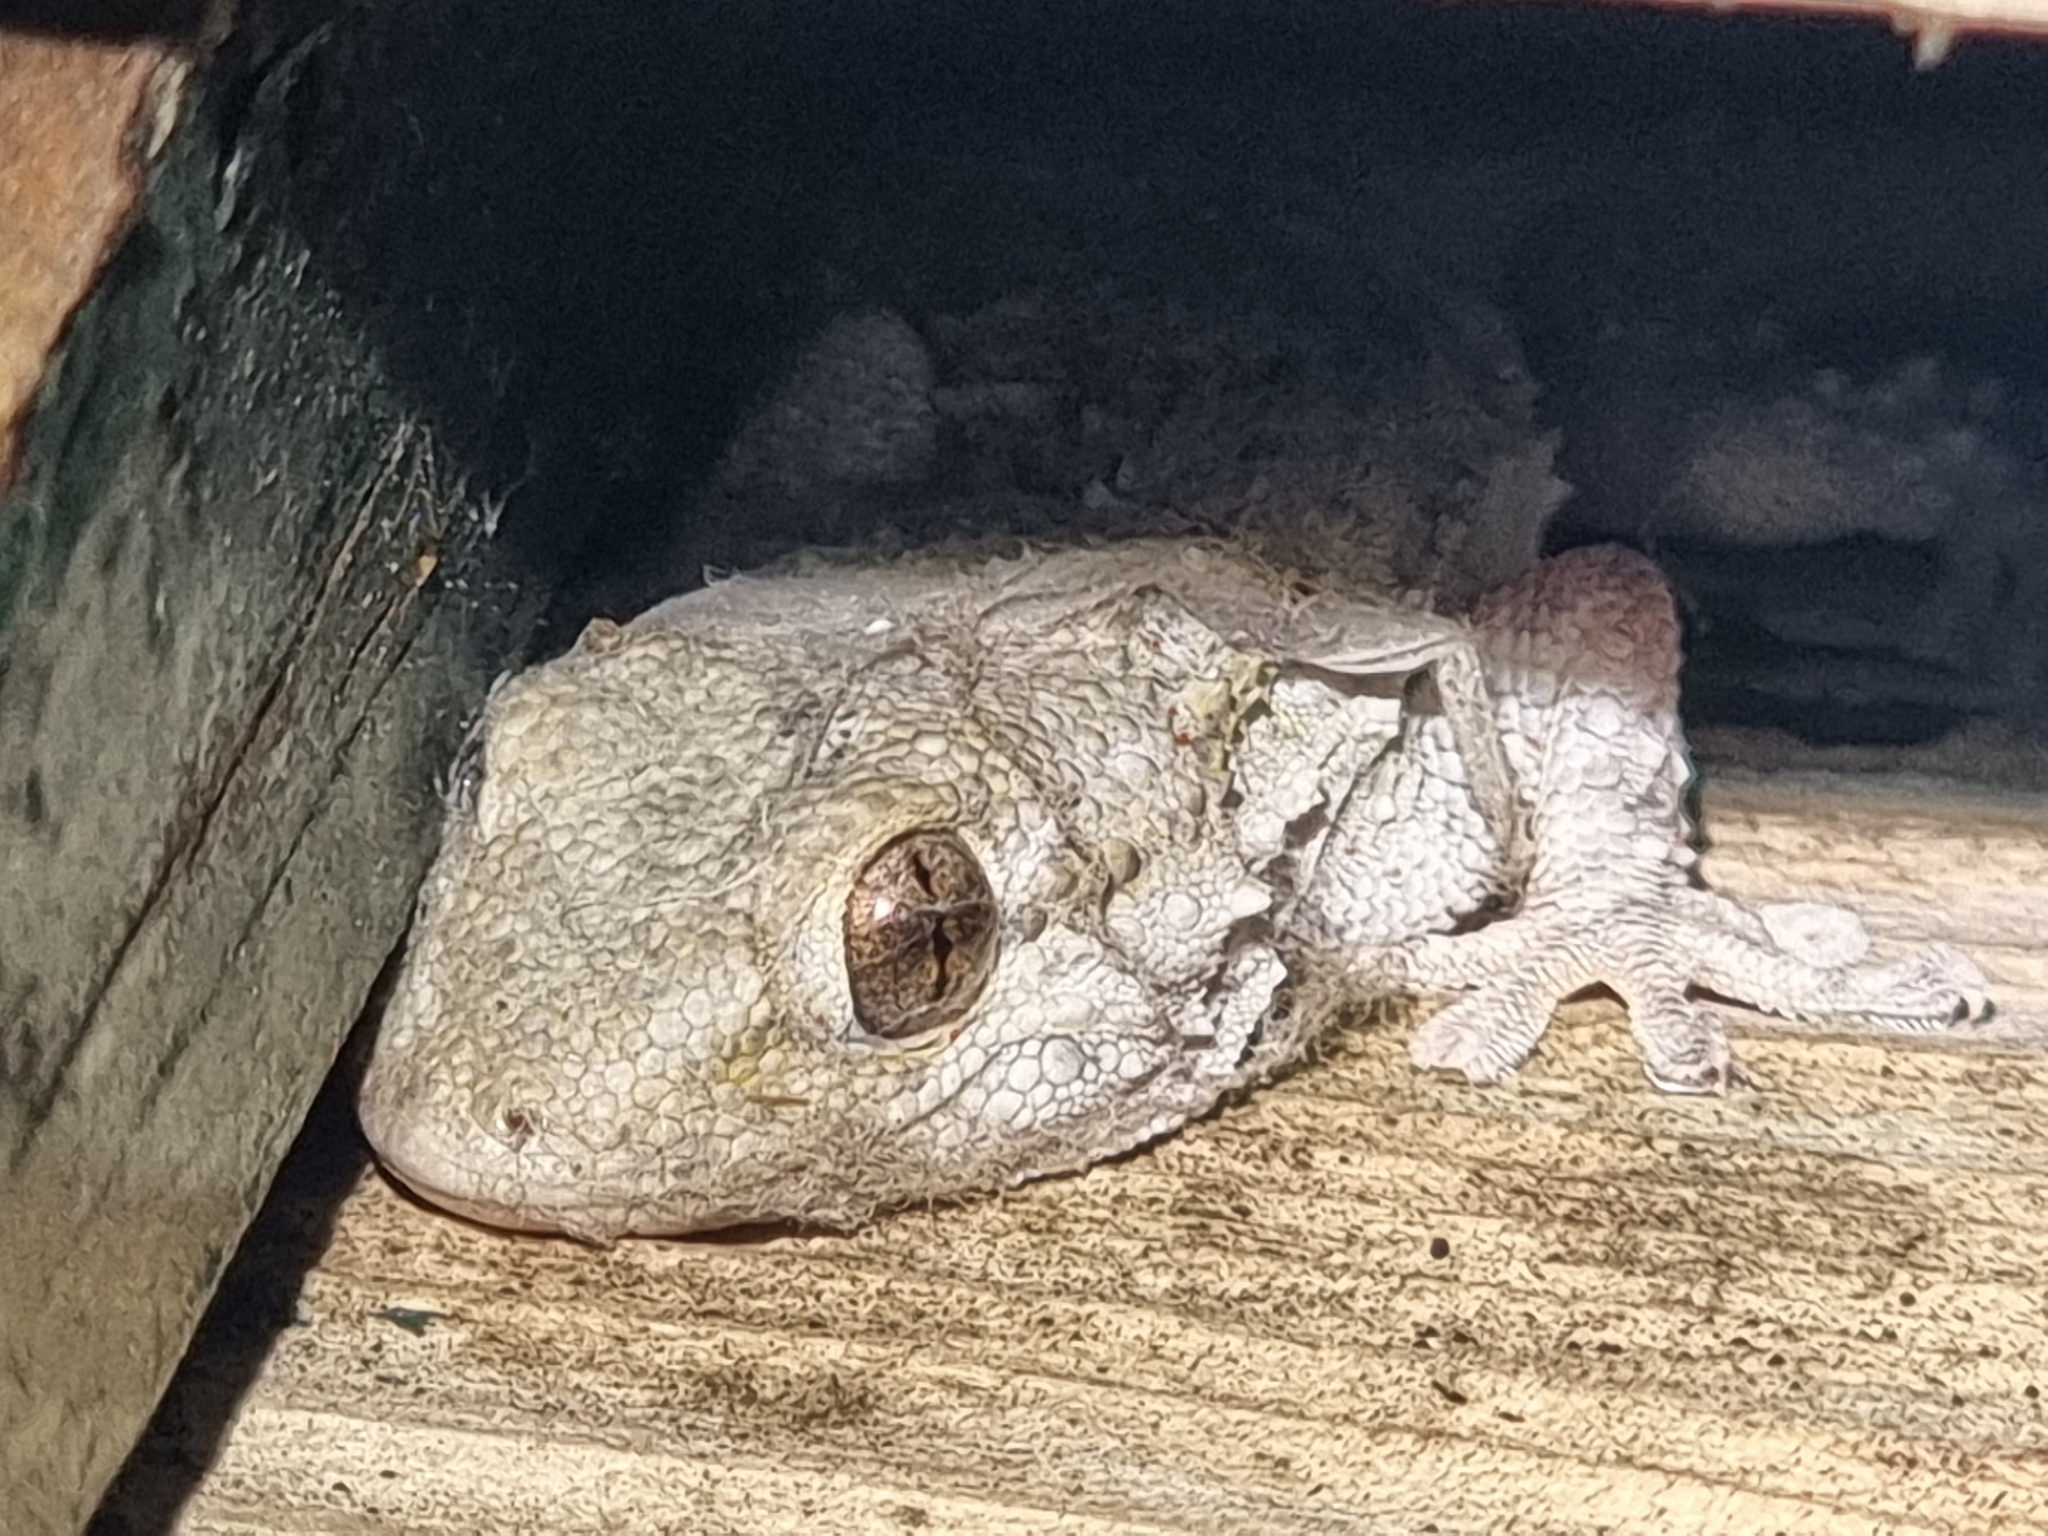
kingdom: Animalia
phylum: Chordata
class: Squamata
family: Phyllodactylidae
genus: Tarentola
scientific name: Tarentola mauritanica
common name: Moorish gecko
